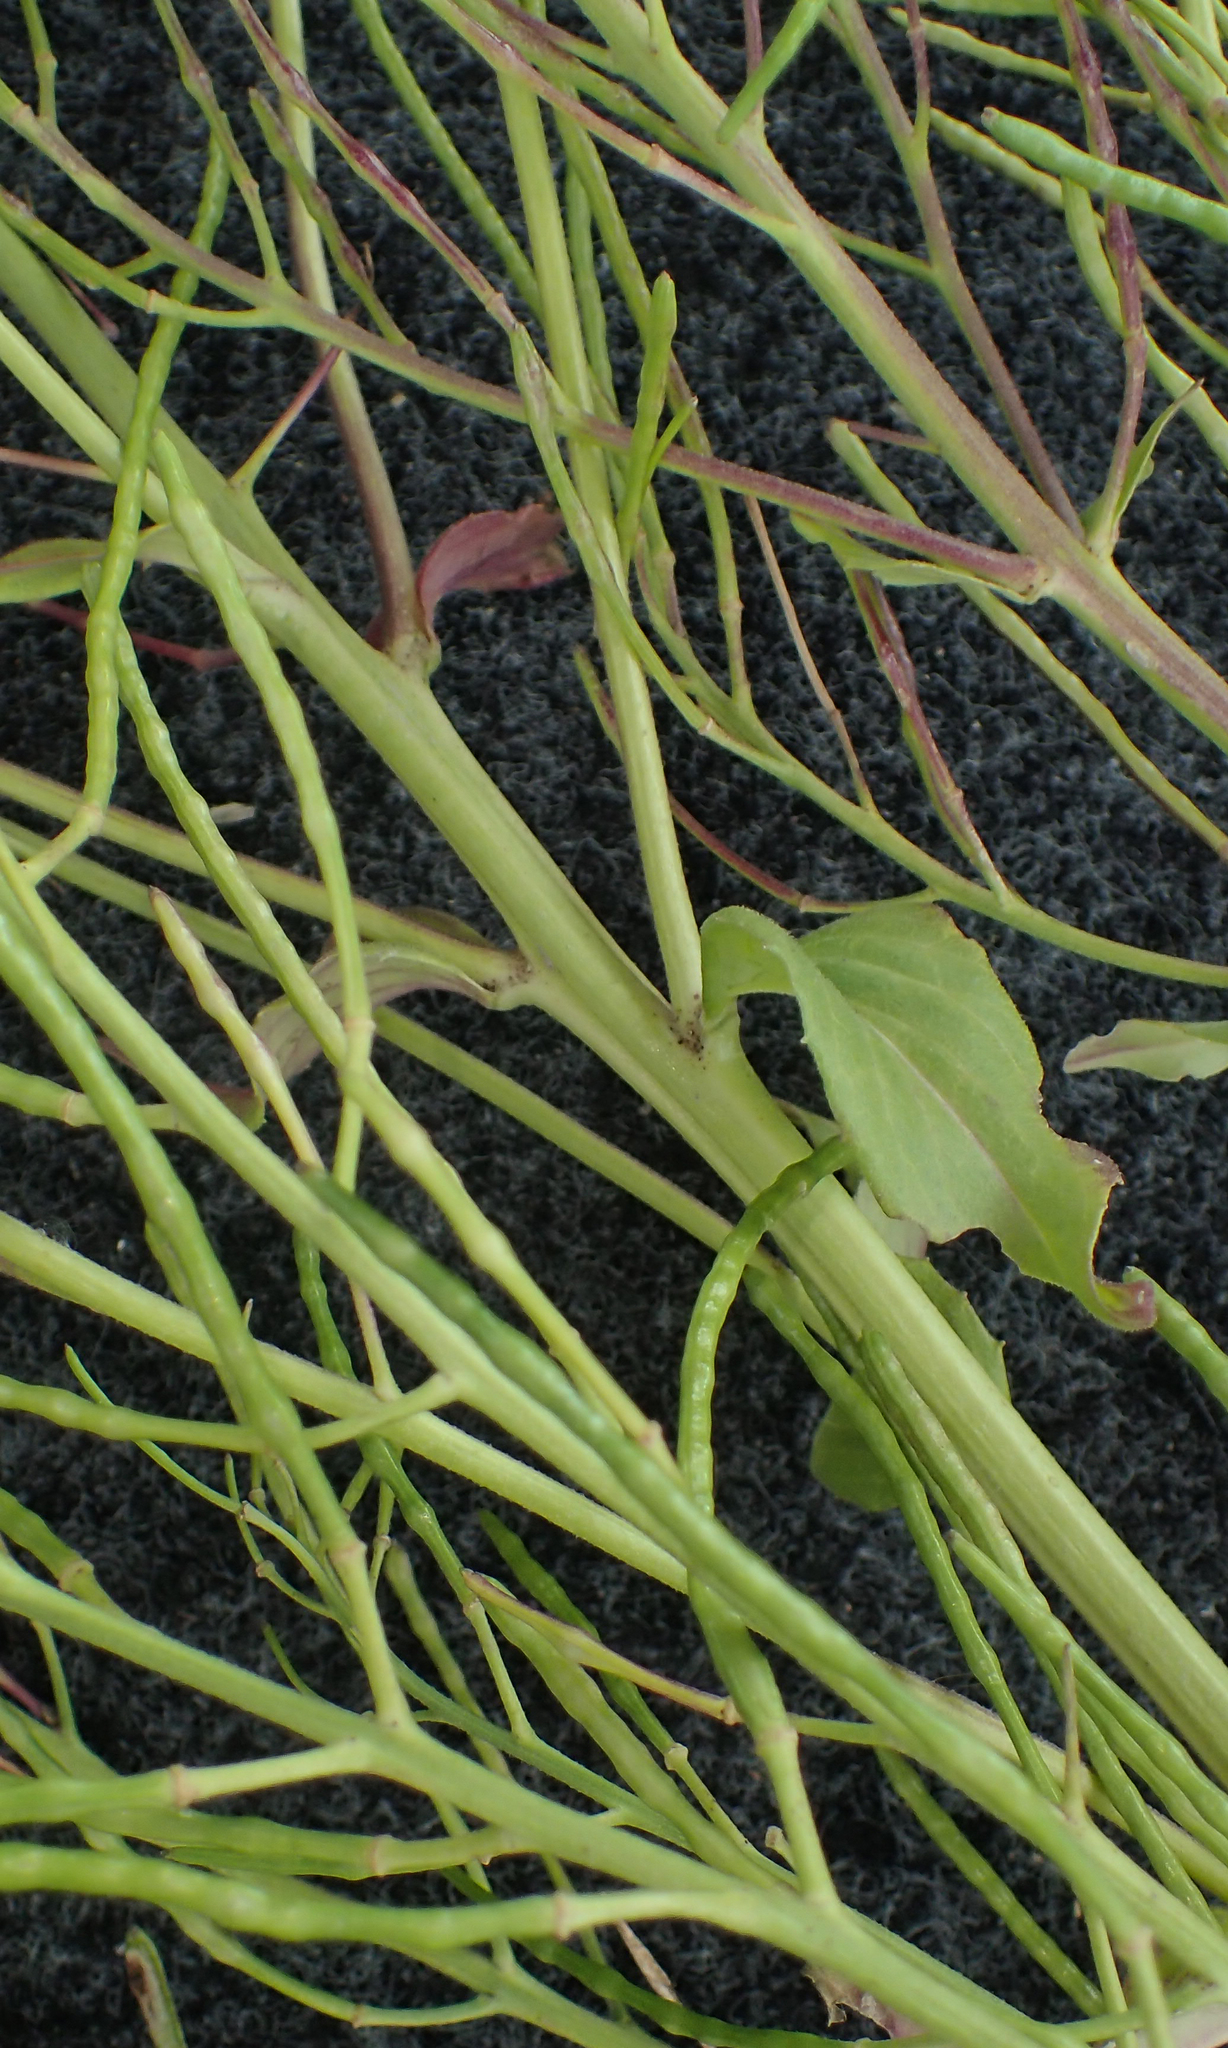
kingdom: Plantae
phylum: Tracheophyta
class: Magnoliopsida
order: Brassicales
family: Brassicaceae
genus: Hesperis
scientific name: Hesperis matronalis
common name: Dame's-violet
